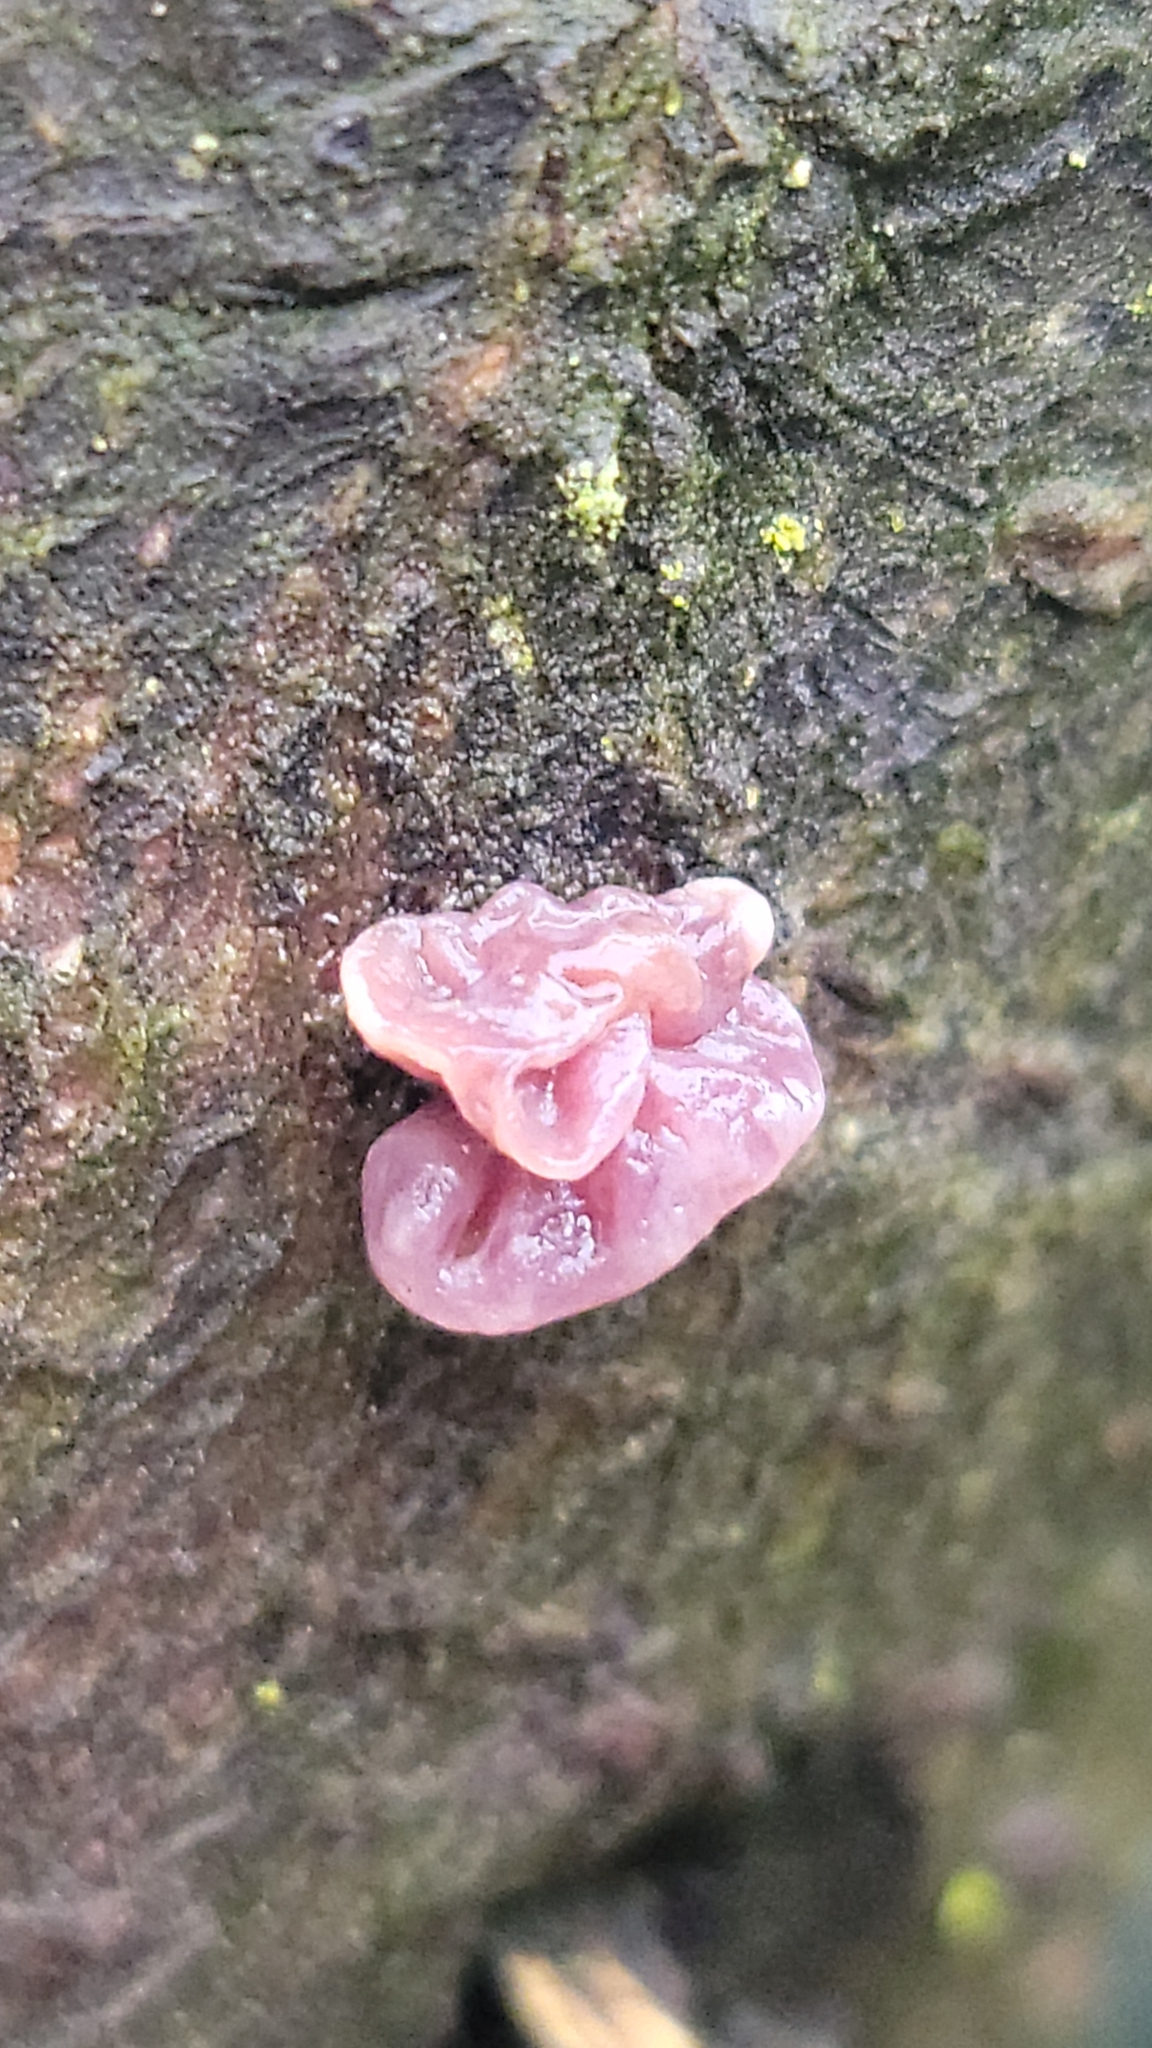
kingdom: Fungi
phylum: Ascomycota
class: Leotiomycetes
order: Helotiales
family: Gelatinodiscaceae
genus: Ascocoryne
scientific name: Ascocoryne sarcoides
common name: Purple jellydisc
